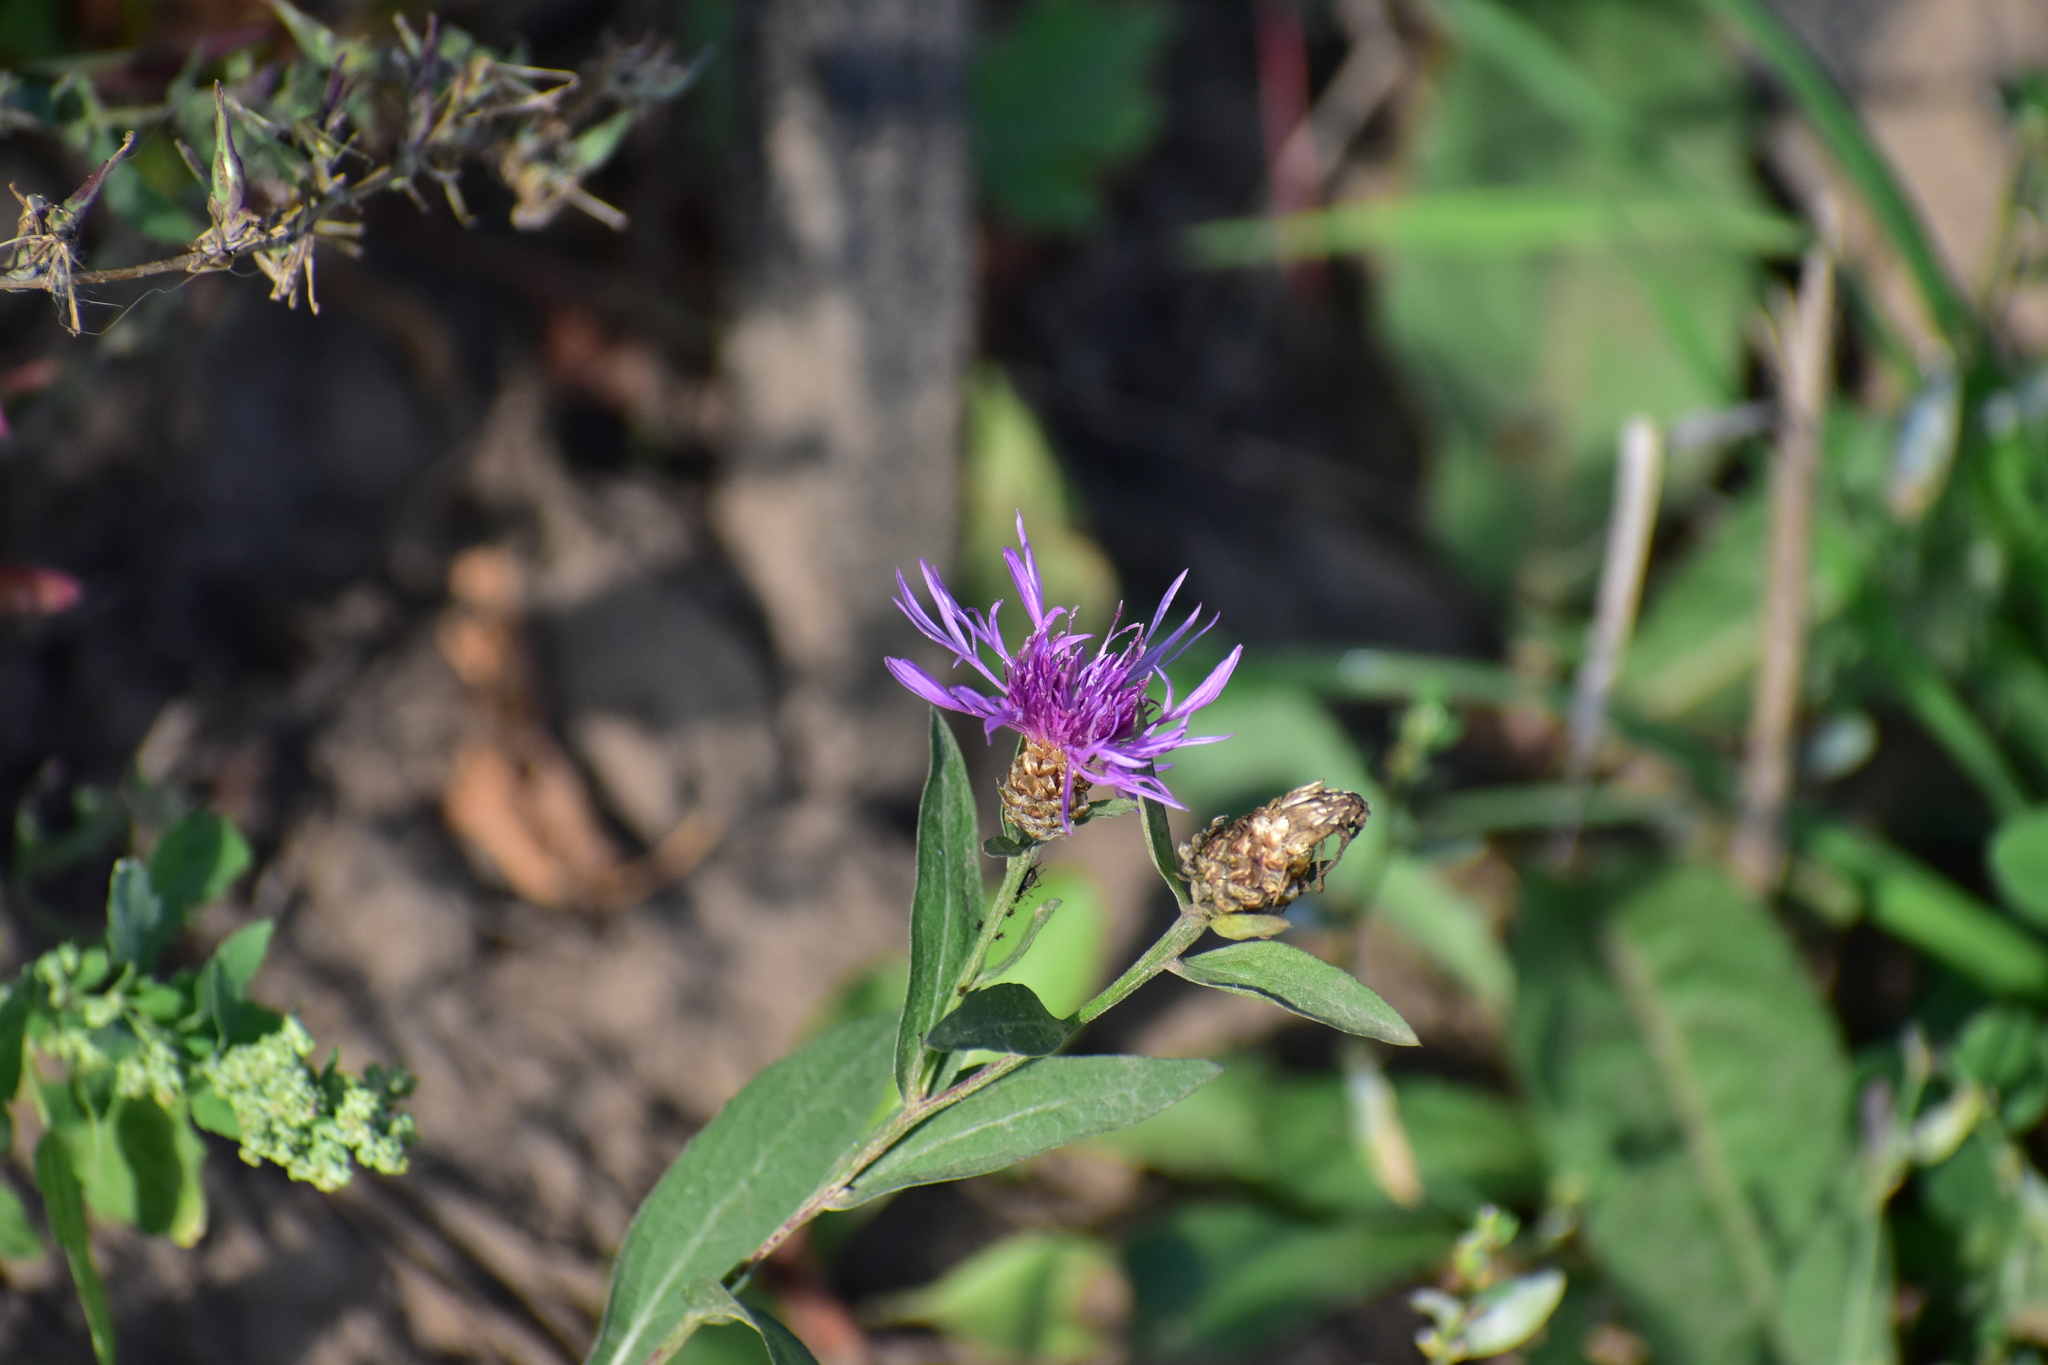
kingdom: Plantae
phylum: Tracheophyta
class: Magnoliopsida
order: Asterales
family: Asteraceae
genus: Centaurea
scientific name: Centaurea jacea
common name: Brown knapweed
